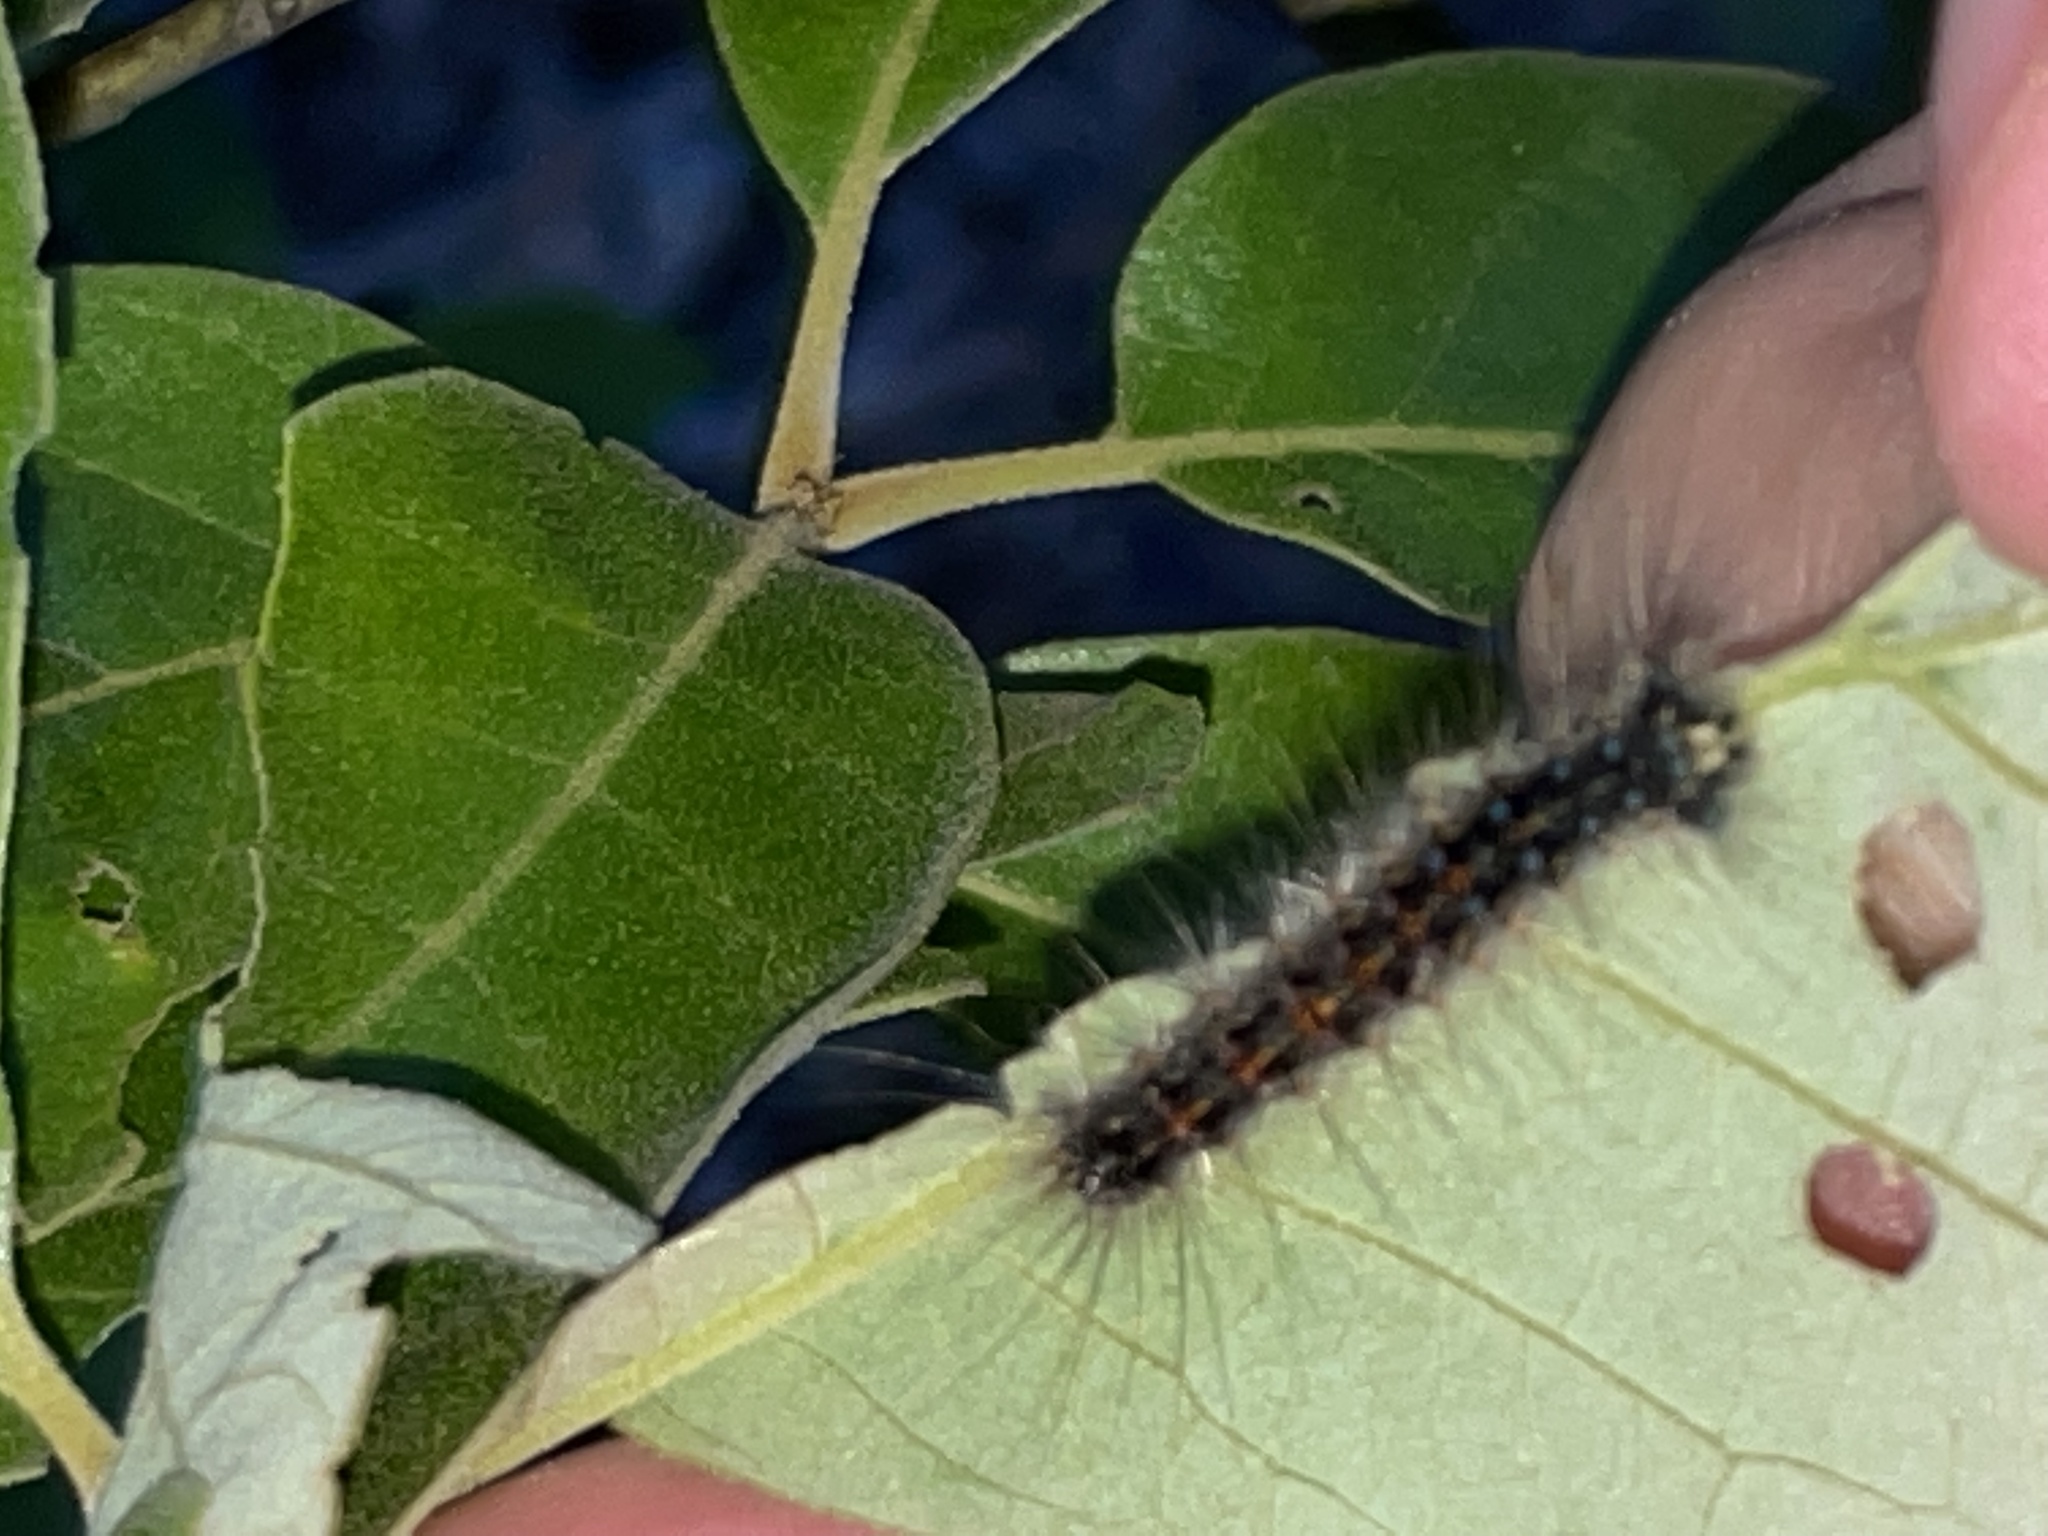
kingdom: Animalia
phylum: Arthropoda
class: Insecta
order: Lepidoptera
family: Erebidae
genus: Lymantria
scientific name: Lymantria dispar
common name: Gypsy moth
